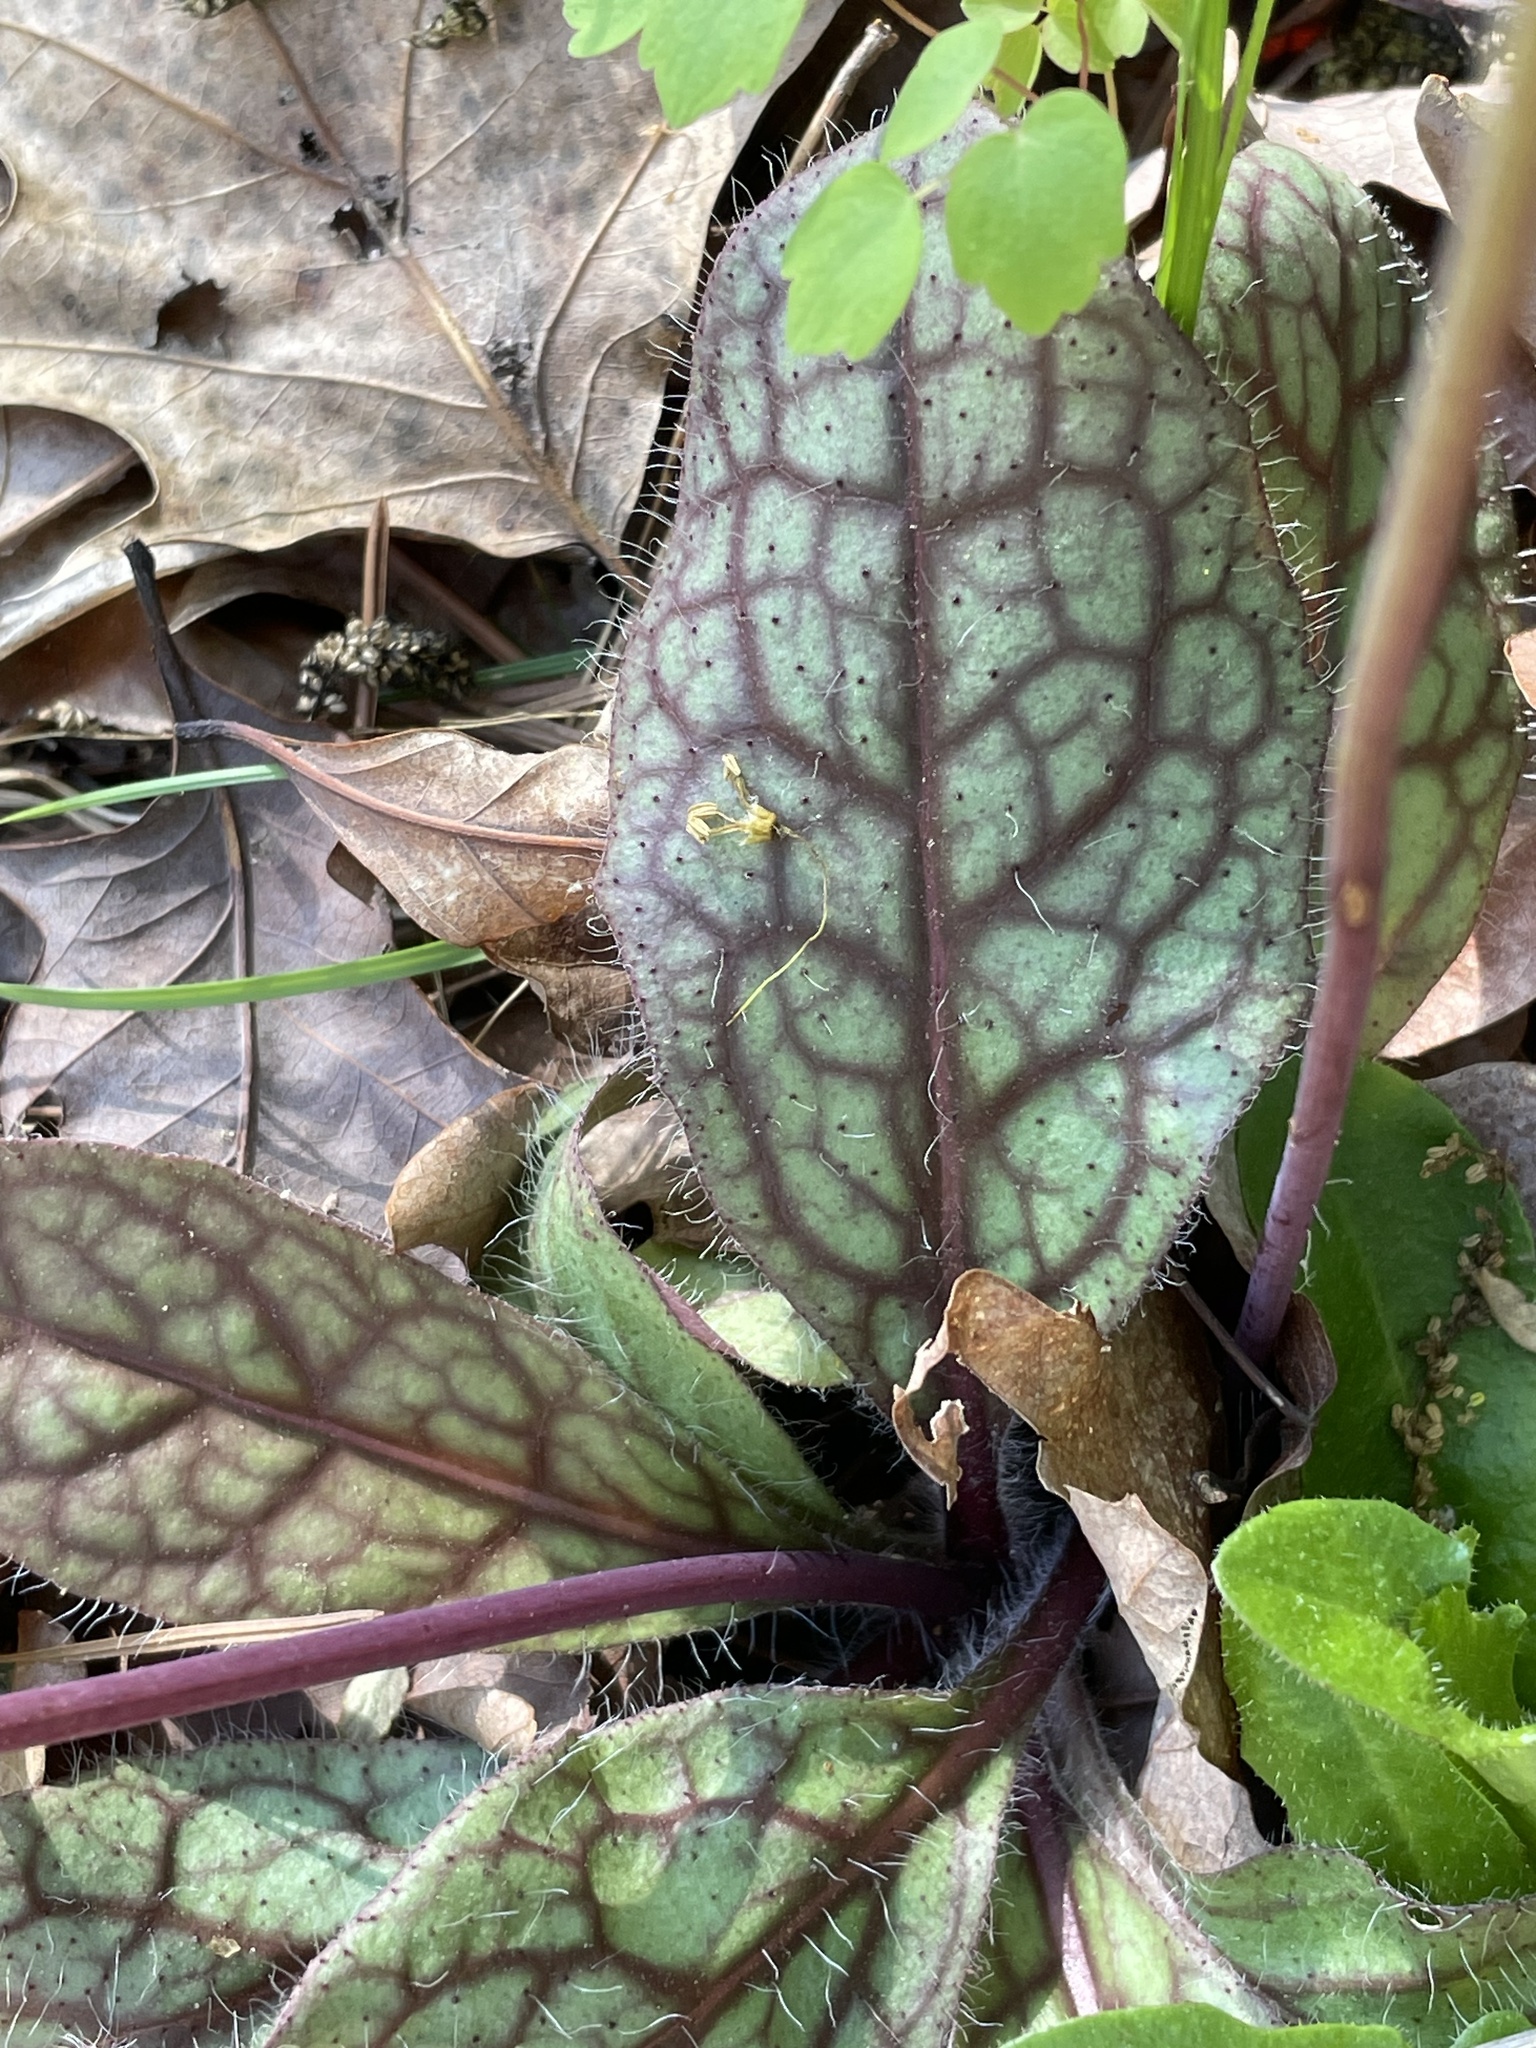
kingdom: Plantae
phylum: Tracheophyta
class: Magnoliopsida
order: Asterales
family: Asteraceae
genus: Hieracium
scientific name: Hieracium venosum
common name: Rattlesnake hawkweed
